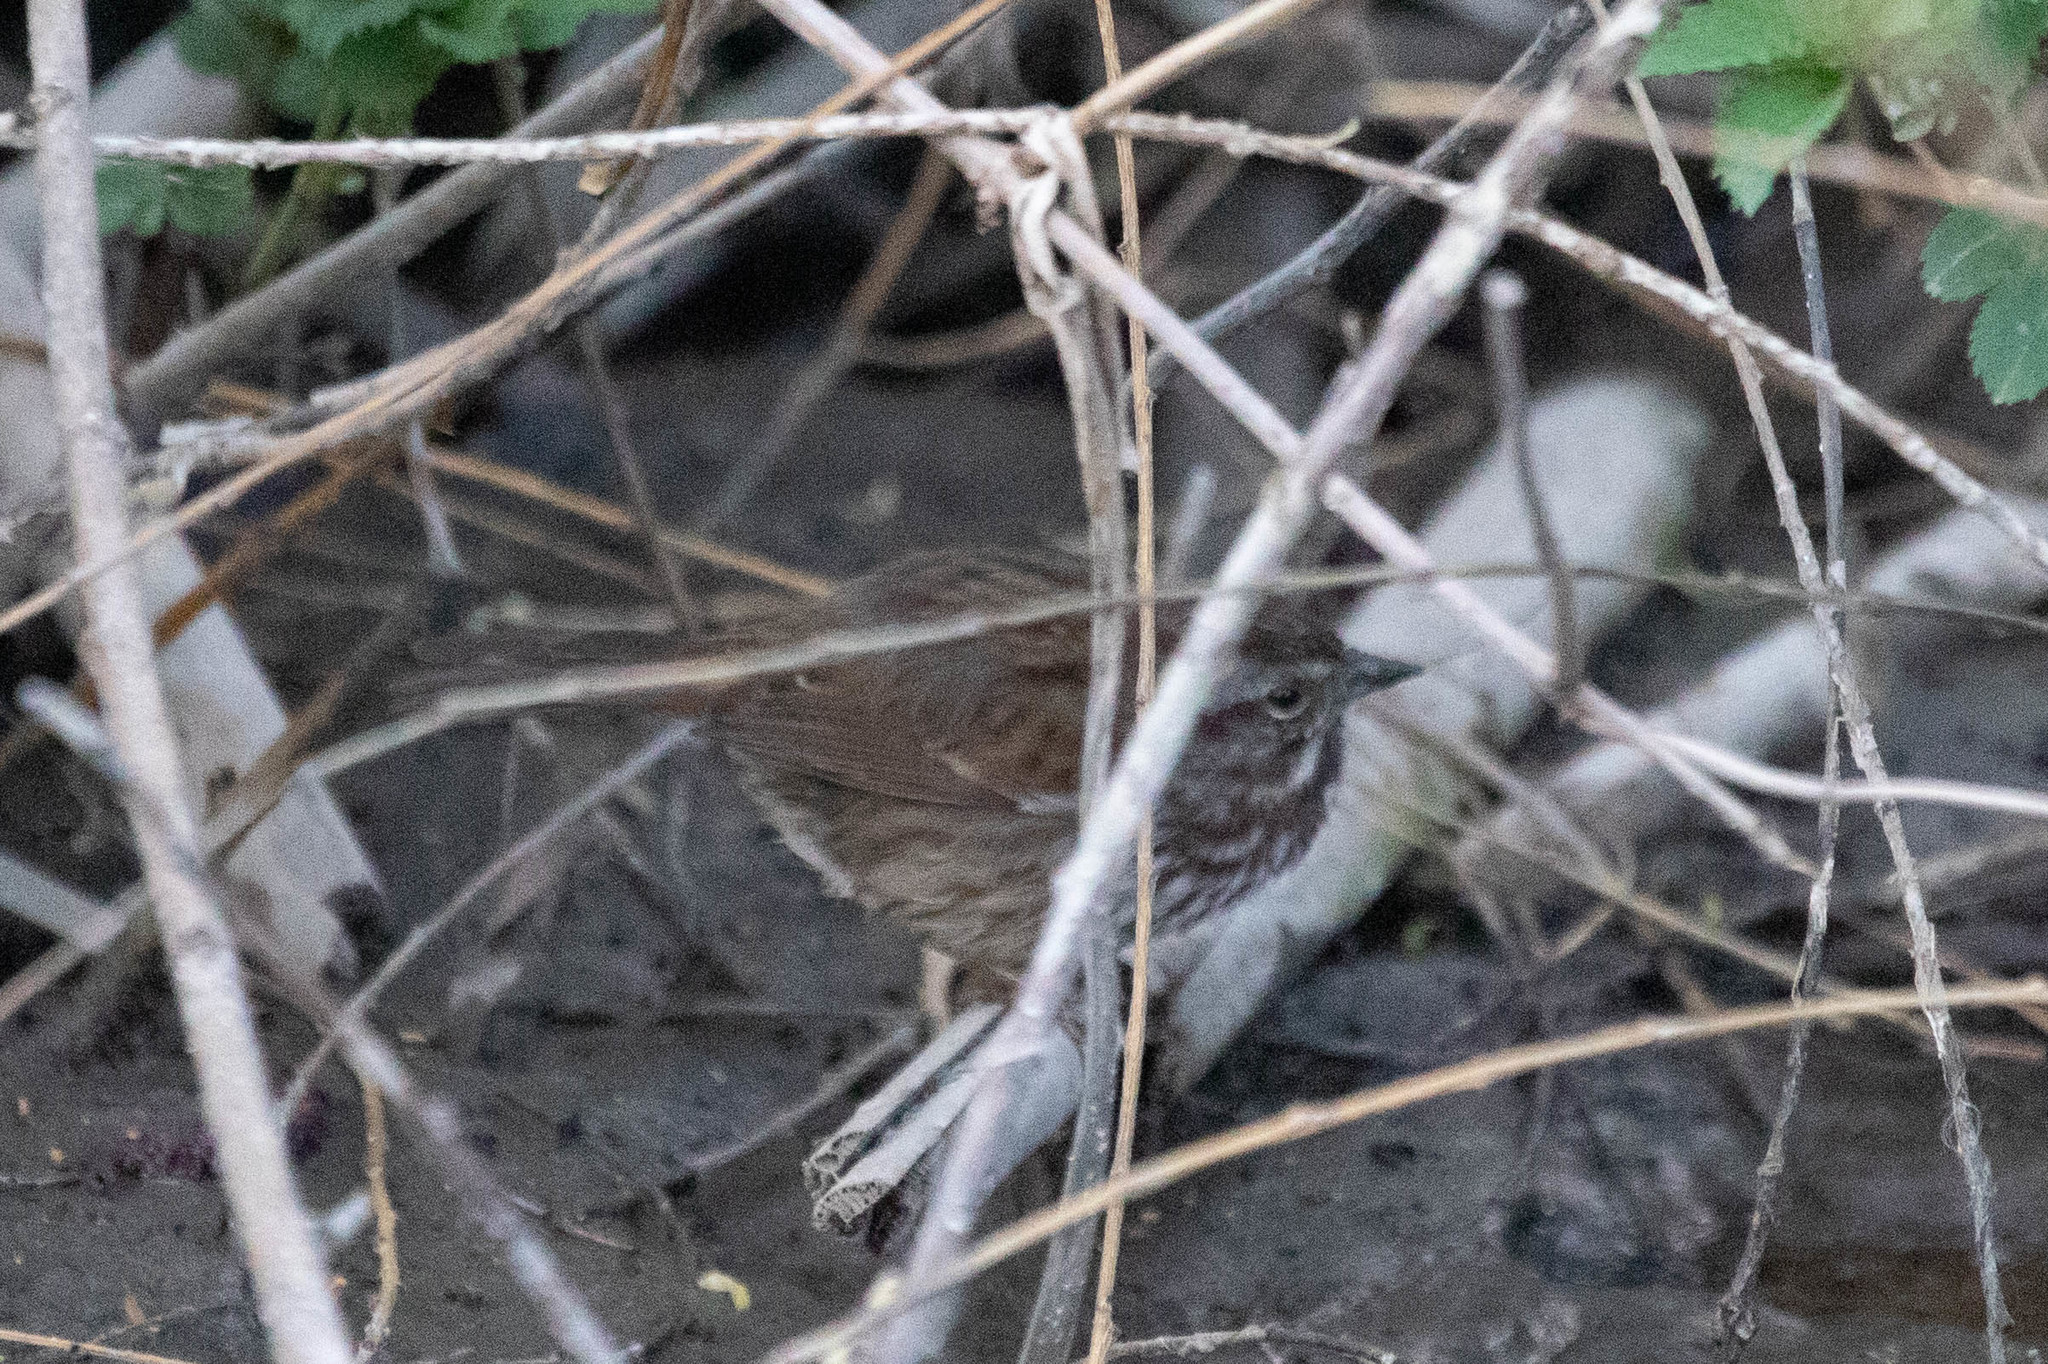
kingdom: Animalia
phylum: Chordata
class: Aves
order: Passeriformes
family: Passerellidae
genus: Melospiza
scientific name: Melospiza melodia
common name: Song sparrow
